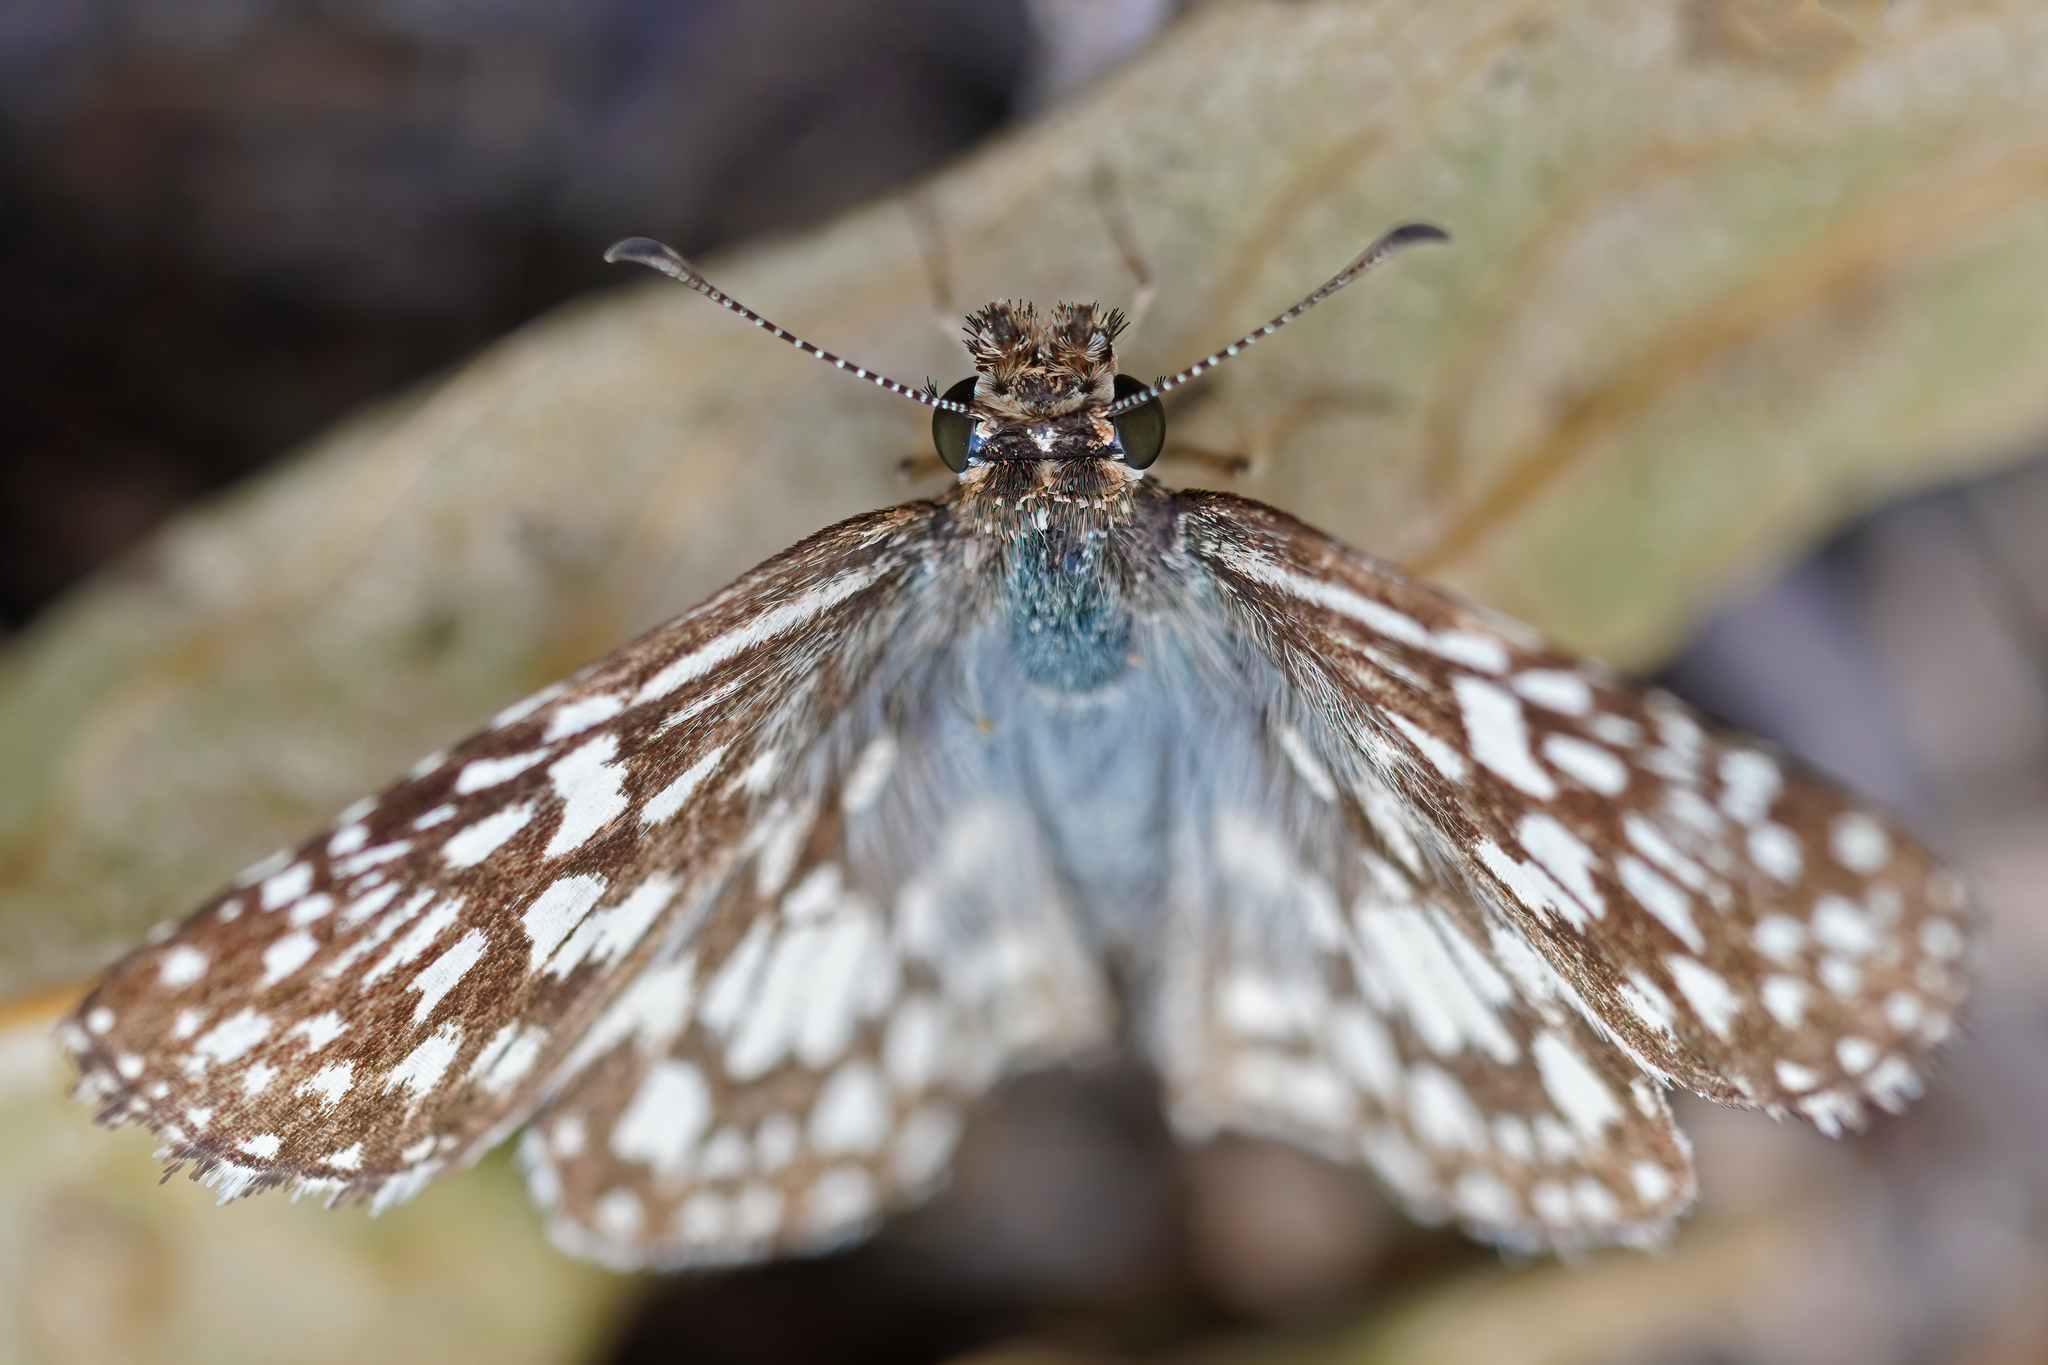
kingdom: Animalia
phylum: Arthropoda
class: Insecta
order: Lepidoptera
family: Hesperiidae
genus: Pyrgus
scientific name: Pyrgus oileus
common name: Tropical checkered-skipper
